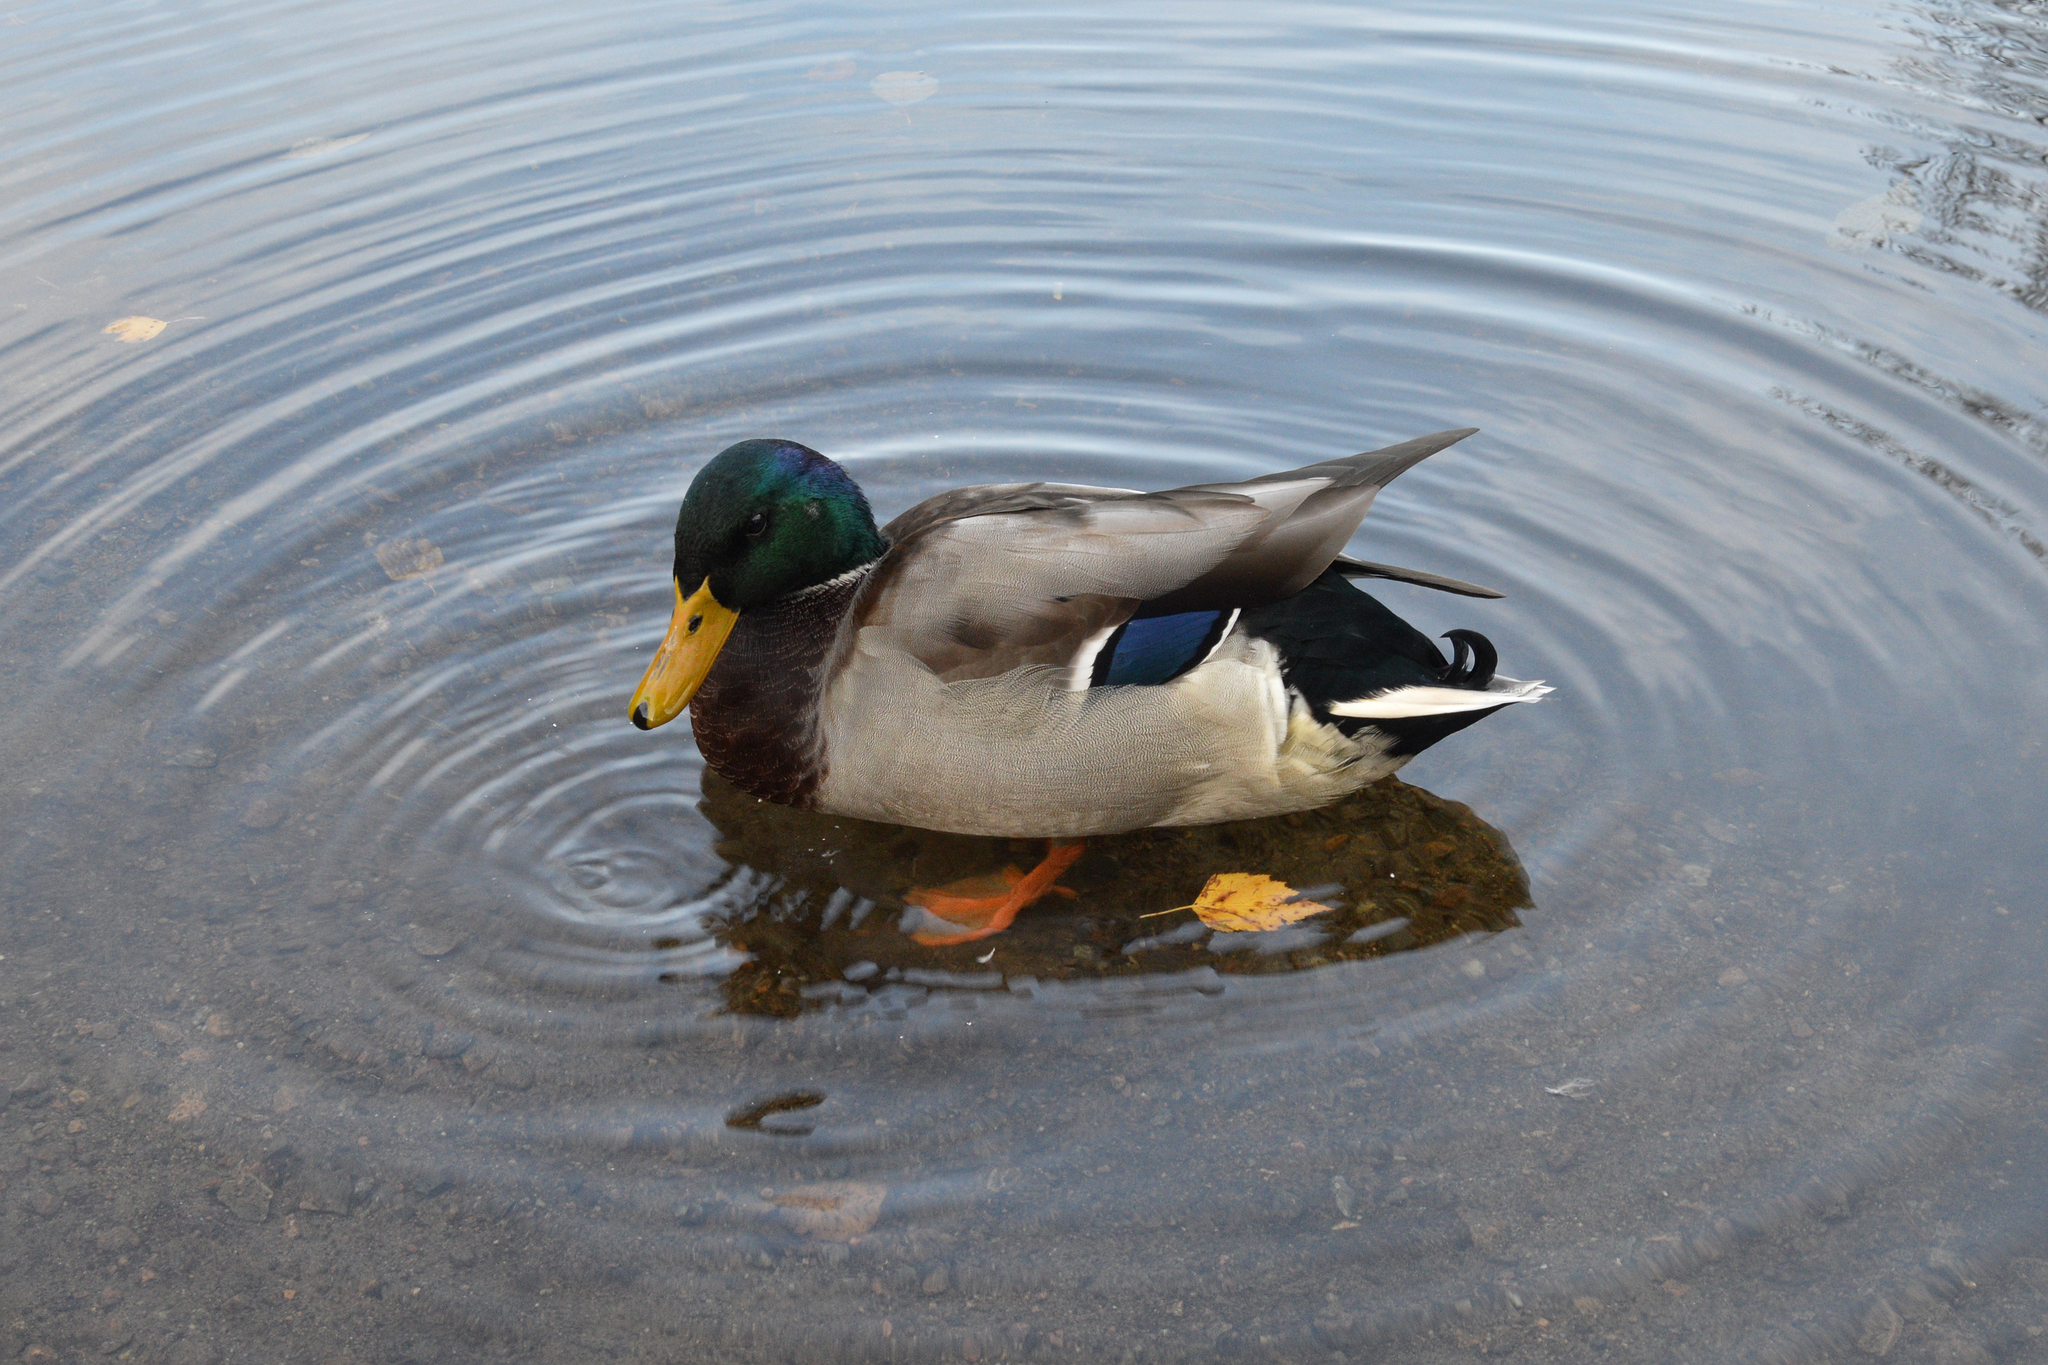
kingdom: Animalia
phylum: Chordata
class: Aves
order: Anseriformes
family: Anatidae
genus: Anas
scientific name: Anas platyrhynchos
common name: Mallard
